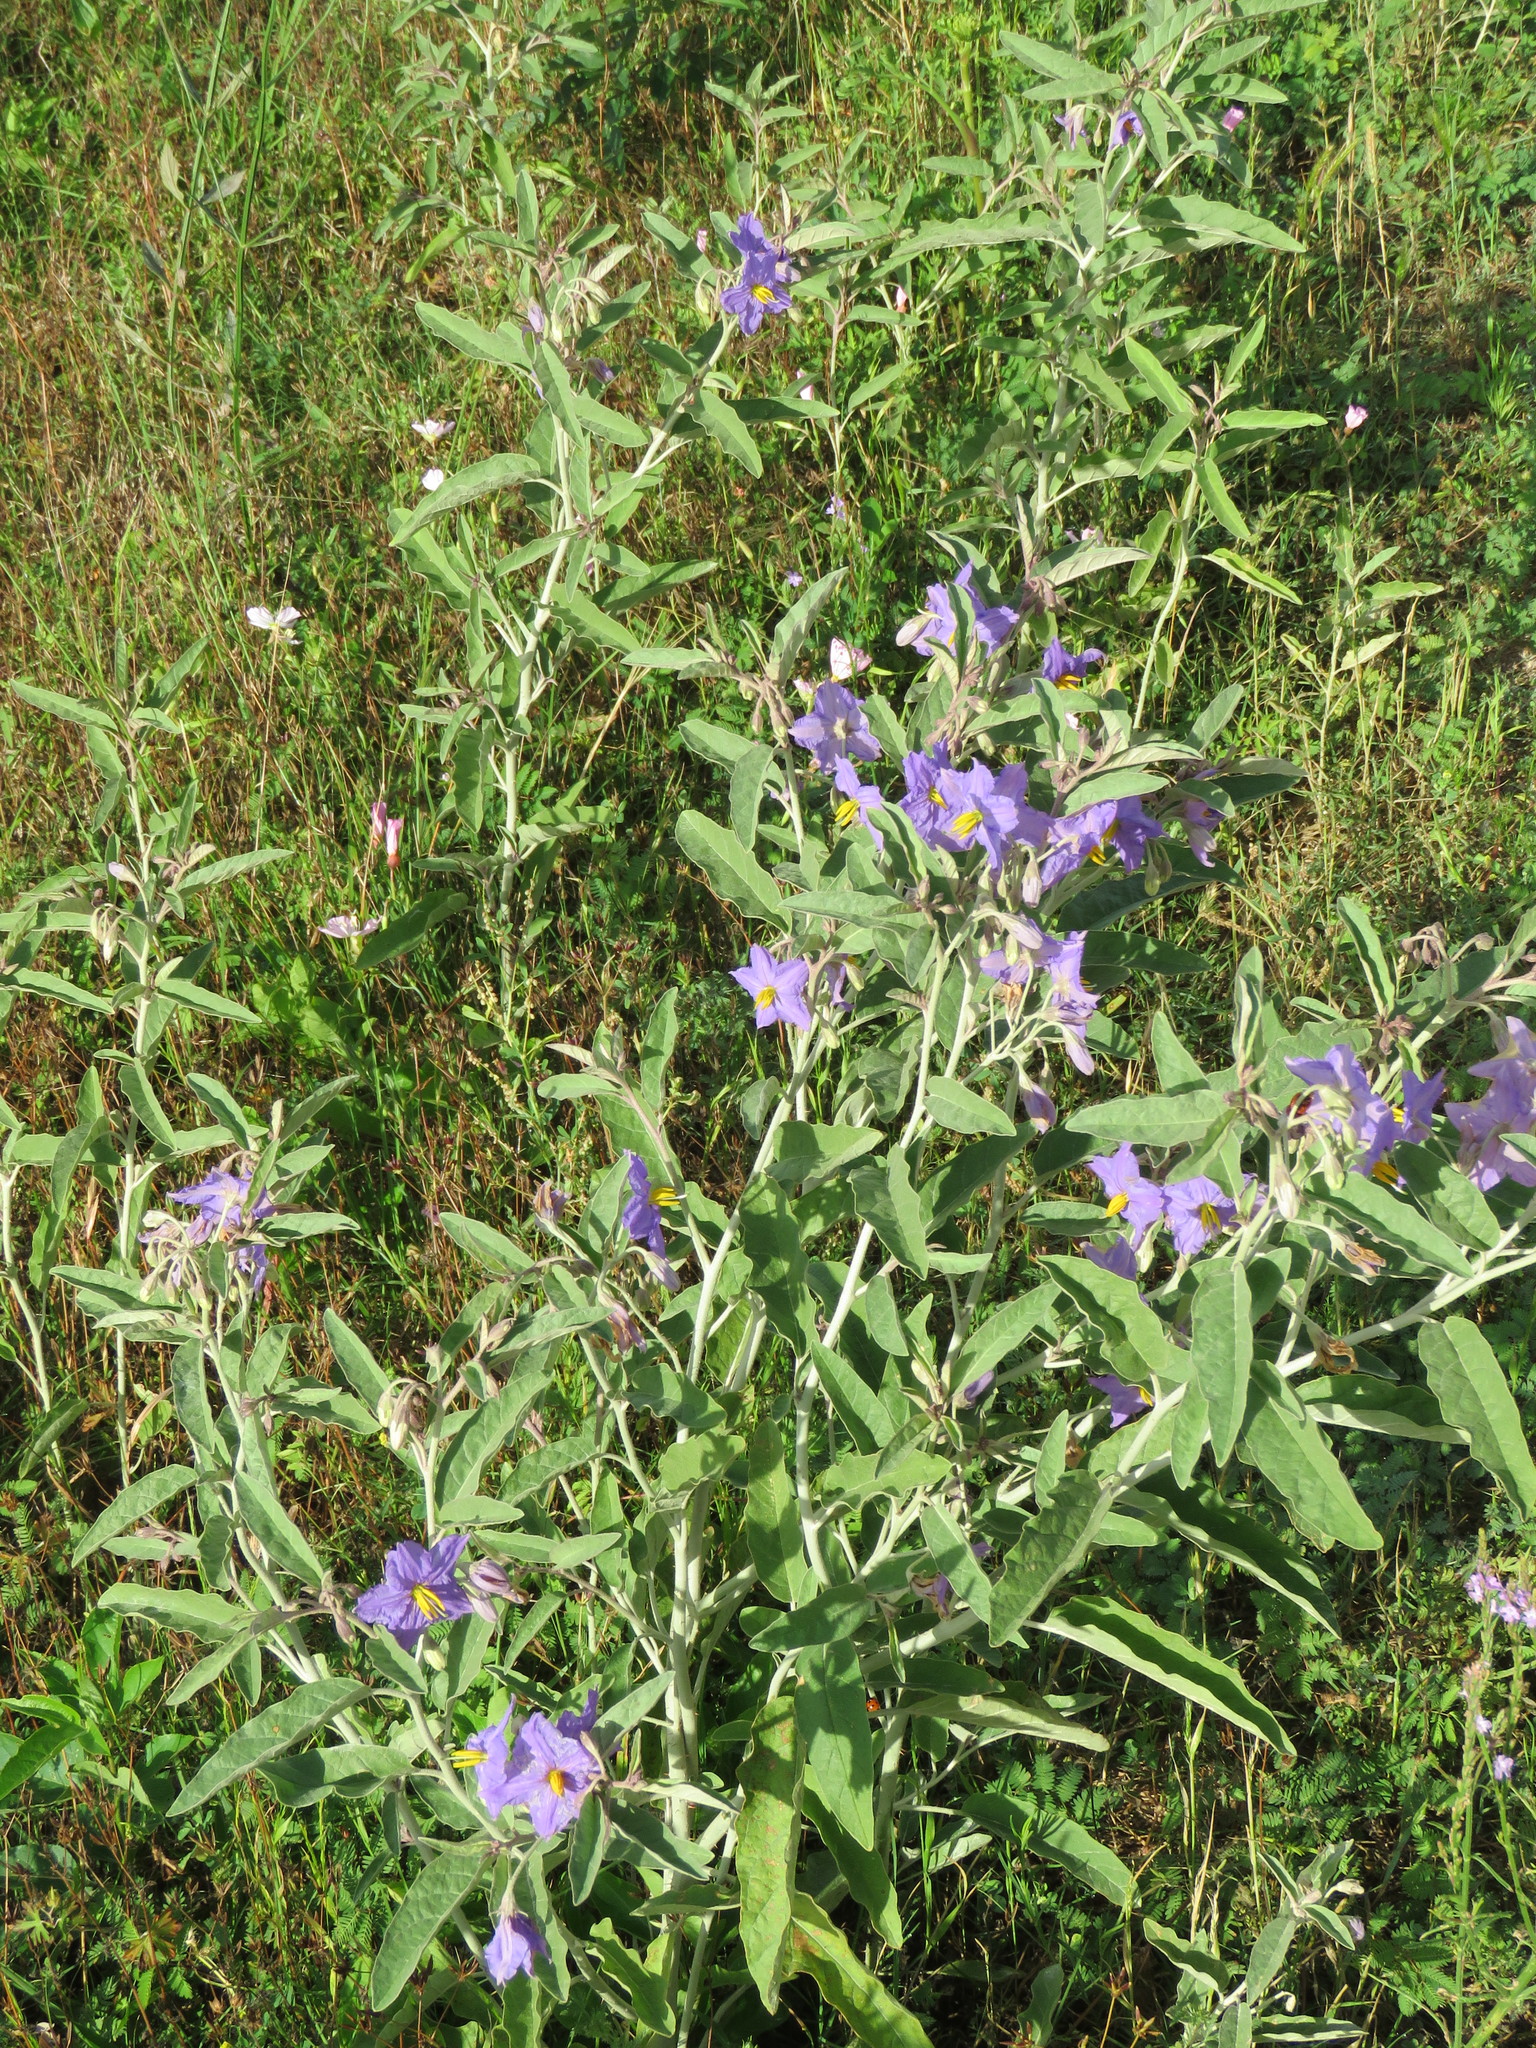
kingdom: Plantae
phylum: Tracheophyta
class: Magnoliopsida
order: Solanales
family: Solanaceae
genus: Solanum
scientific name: Solanum elaeagnifolium
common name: Silverleaf nightshade
